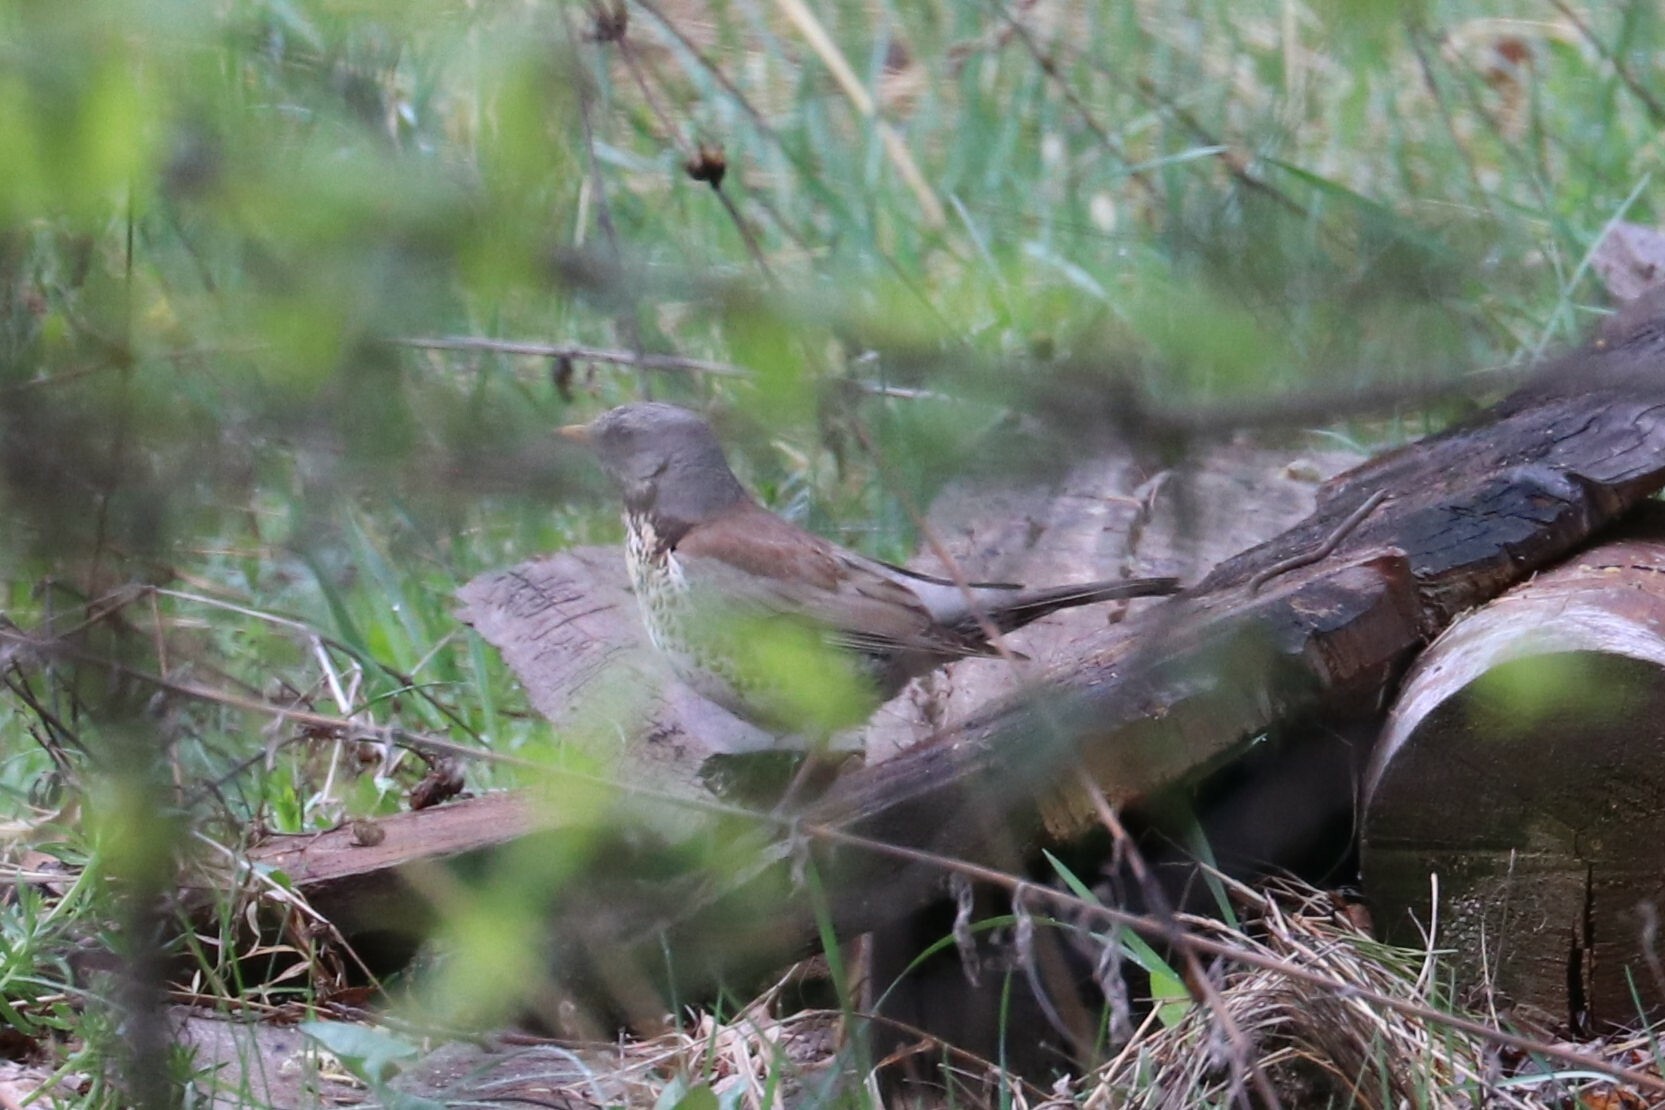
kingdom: Animalia
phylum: Chordata
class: Aves
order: Passeriformes
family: Turdidae
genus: Turdus
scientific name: Turdus pilaris
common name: Fieldfare
